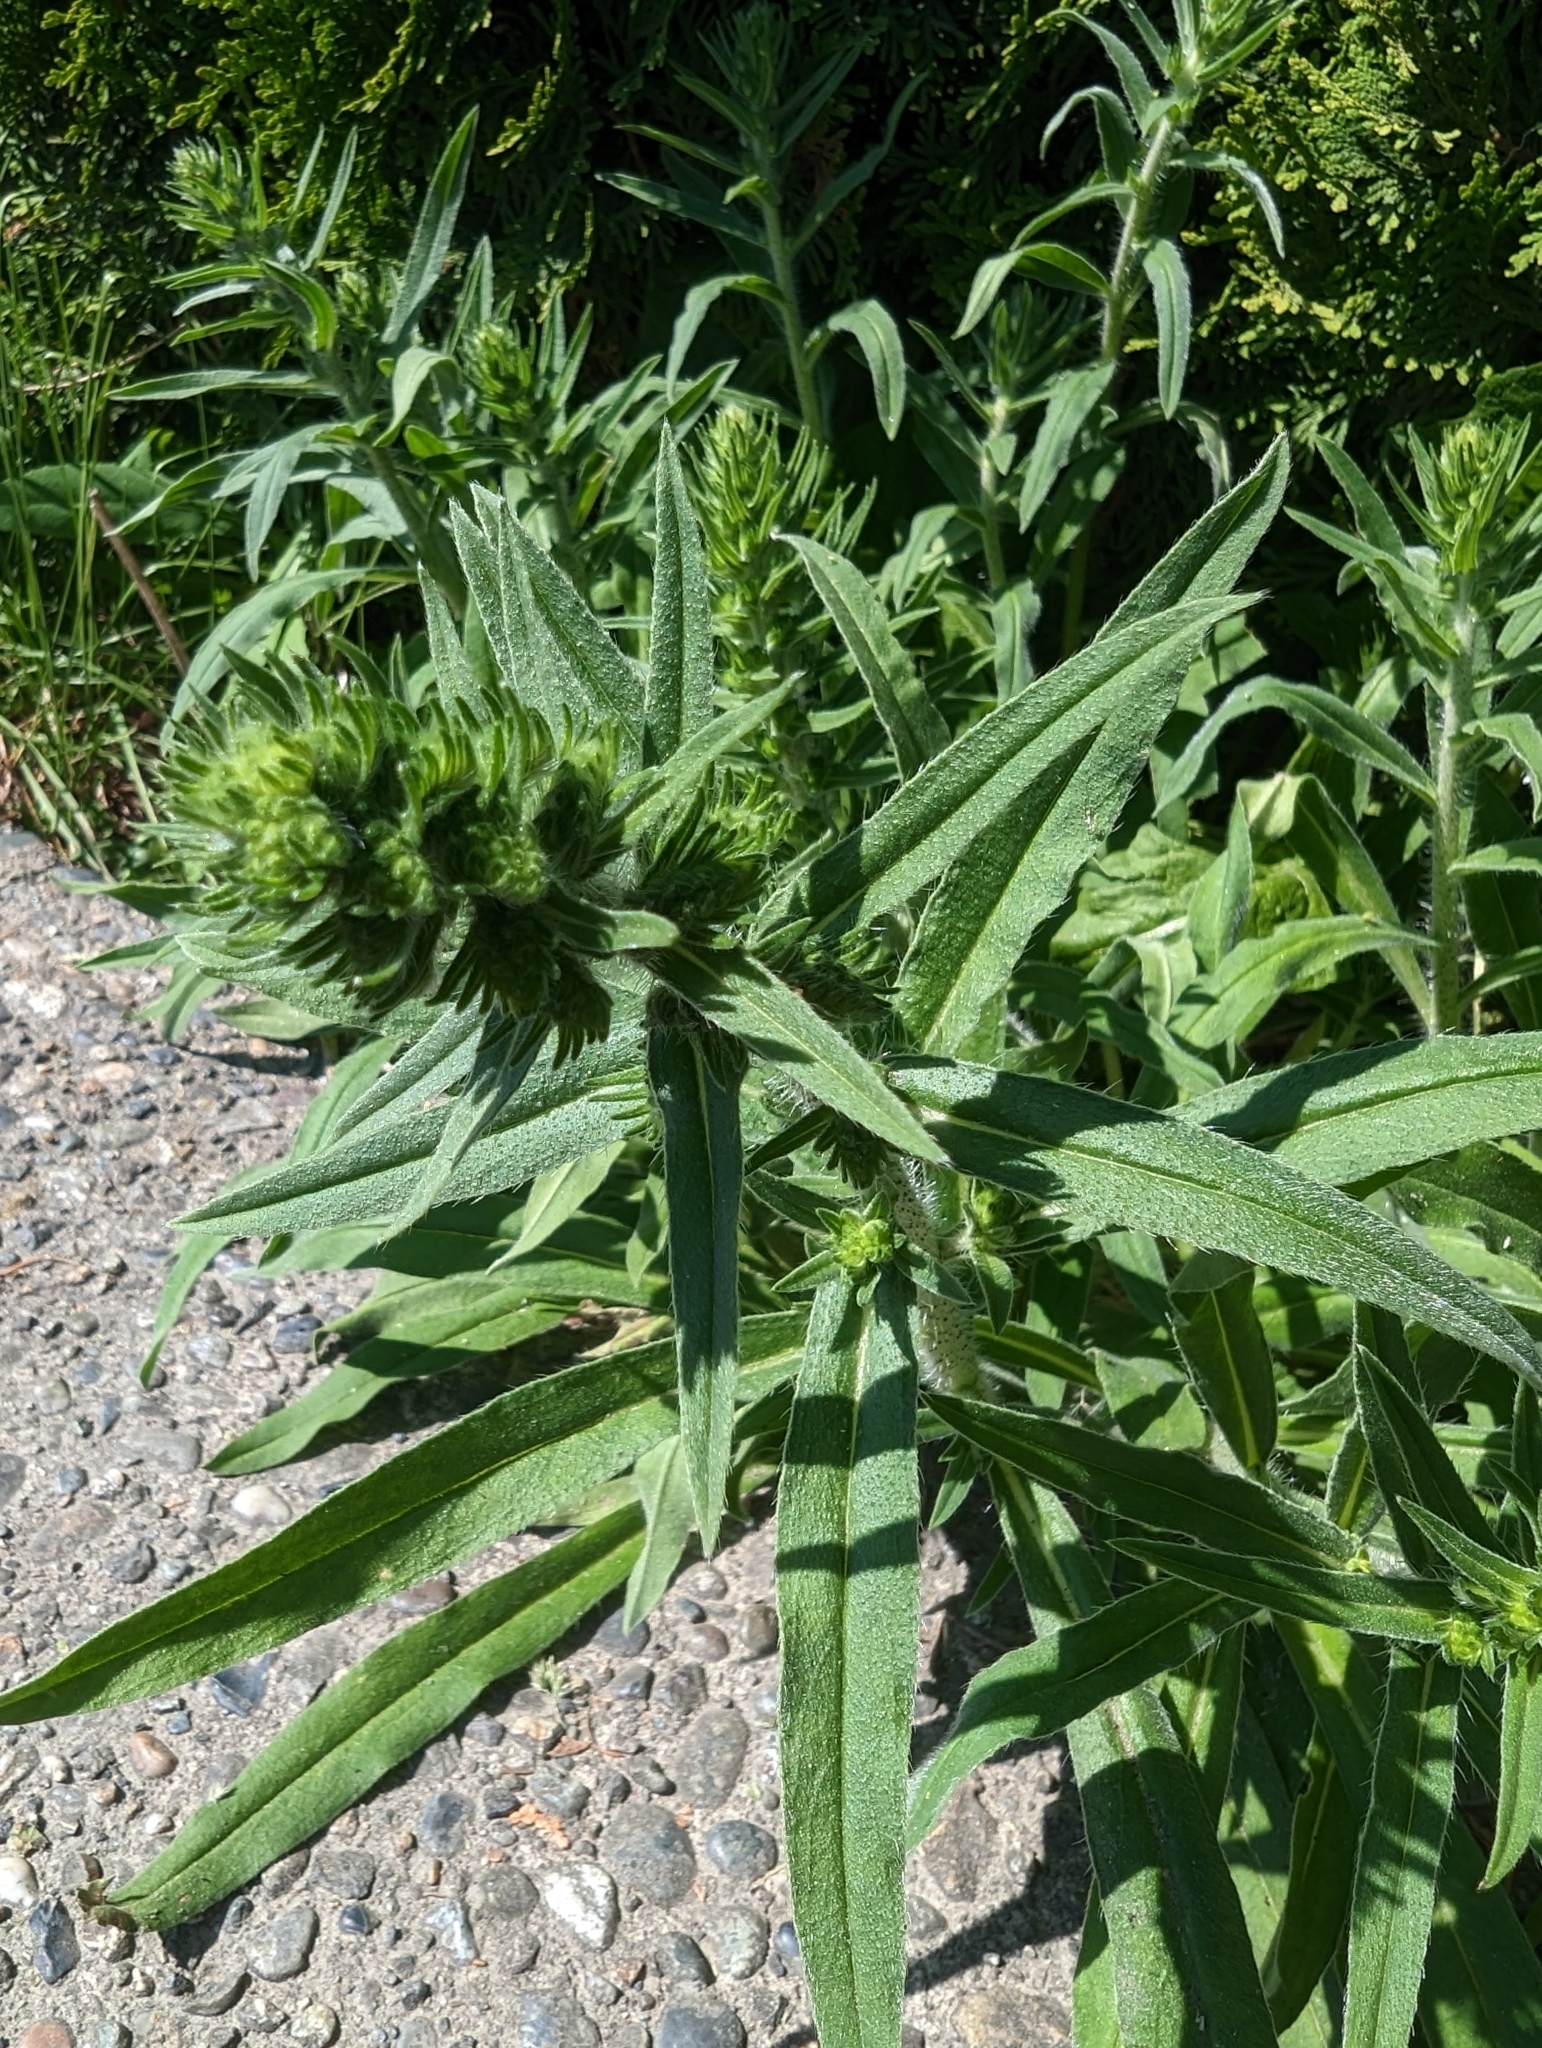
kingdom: Plantae
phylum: Tracheophyta
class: Magnoliopsida
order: Boraginales
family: Boraginaceae
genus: Echium
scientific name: Echium vulgare
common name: Common viper's bugloss
